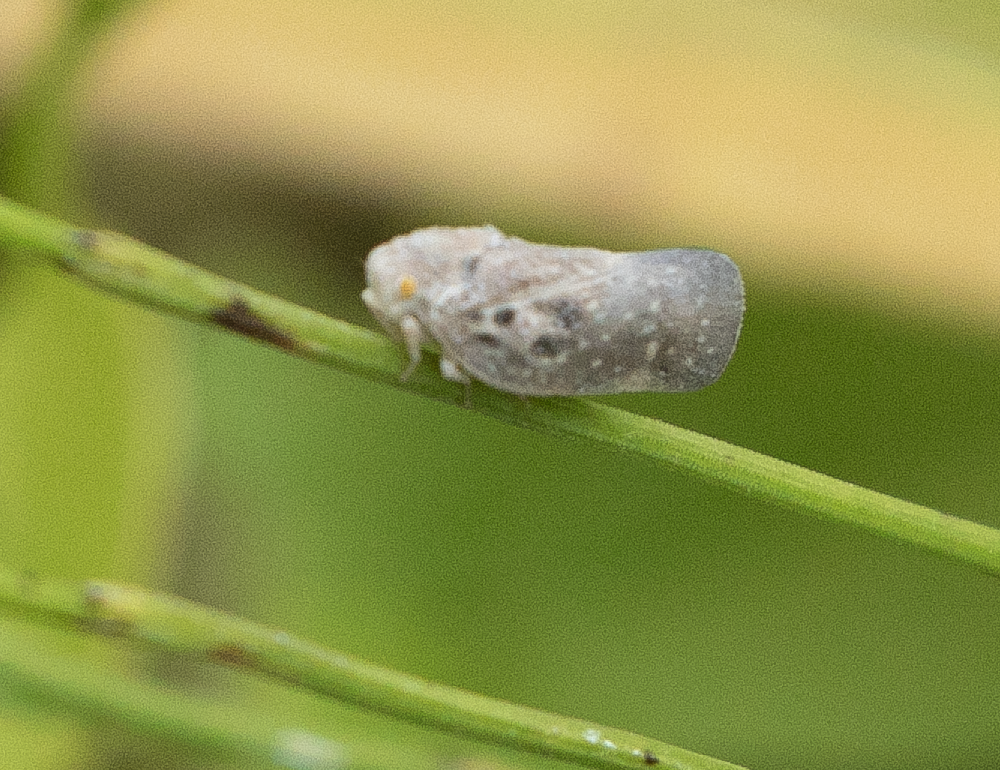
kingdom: Animalia
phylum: Arthropoda
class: Insecta
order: Hemiptera
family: Flatidae
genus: Metcalfa
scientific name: Metcalfa pruinosa
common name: Citrus flatid planthopper
